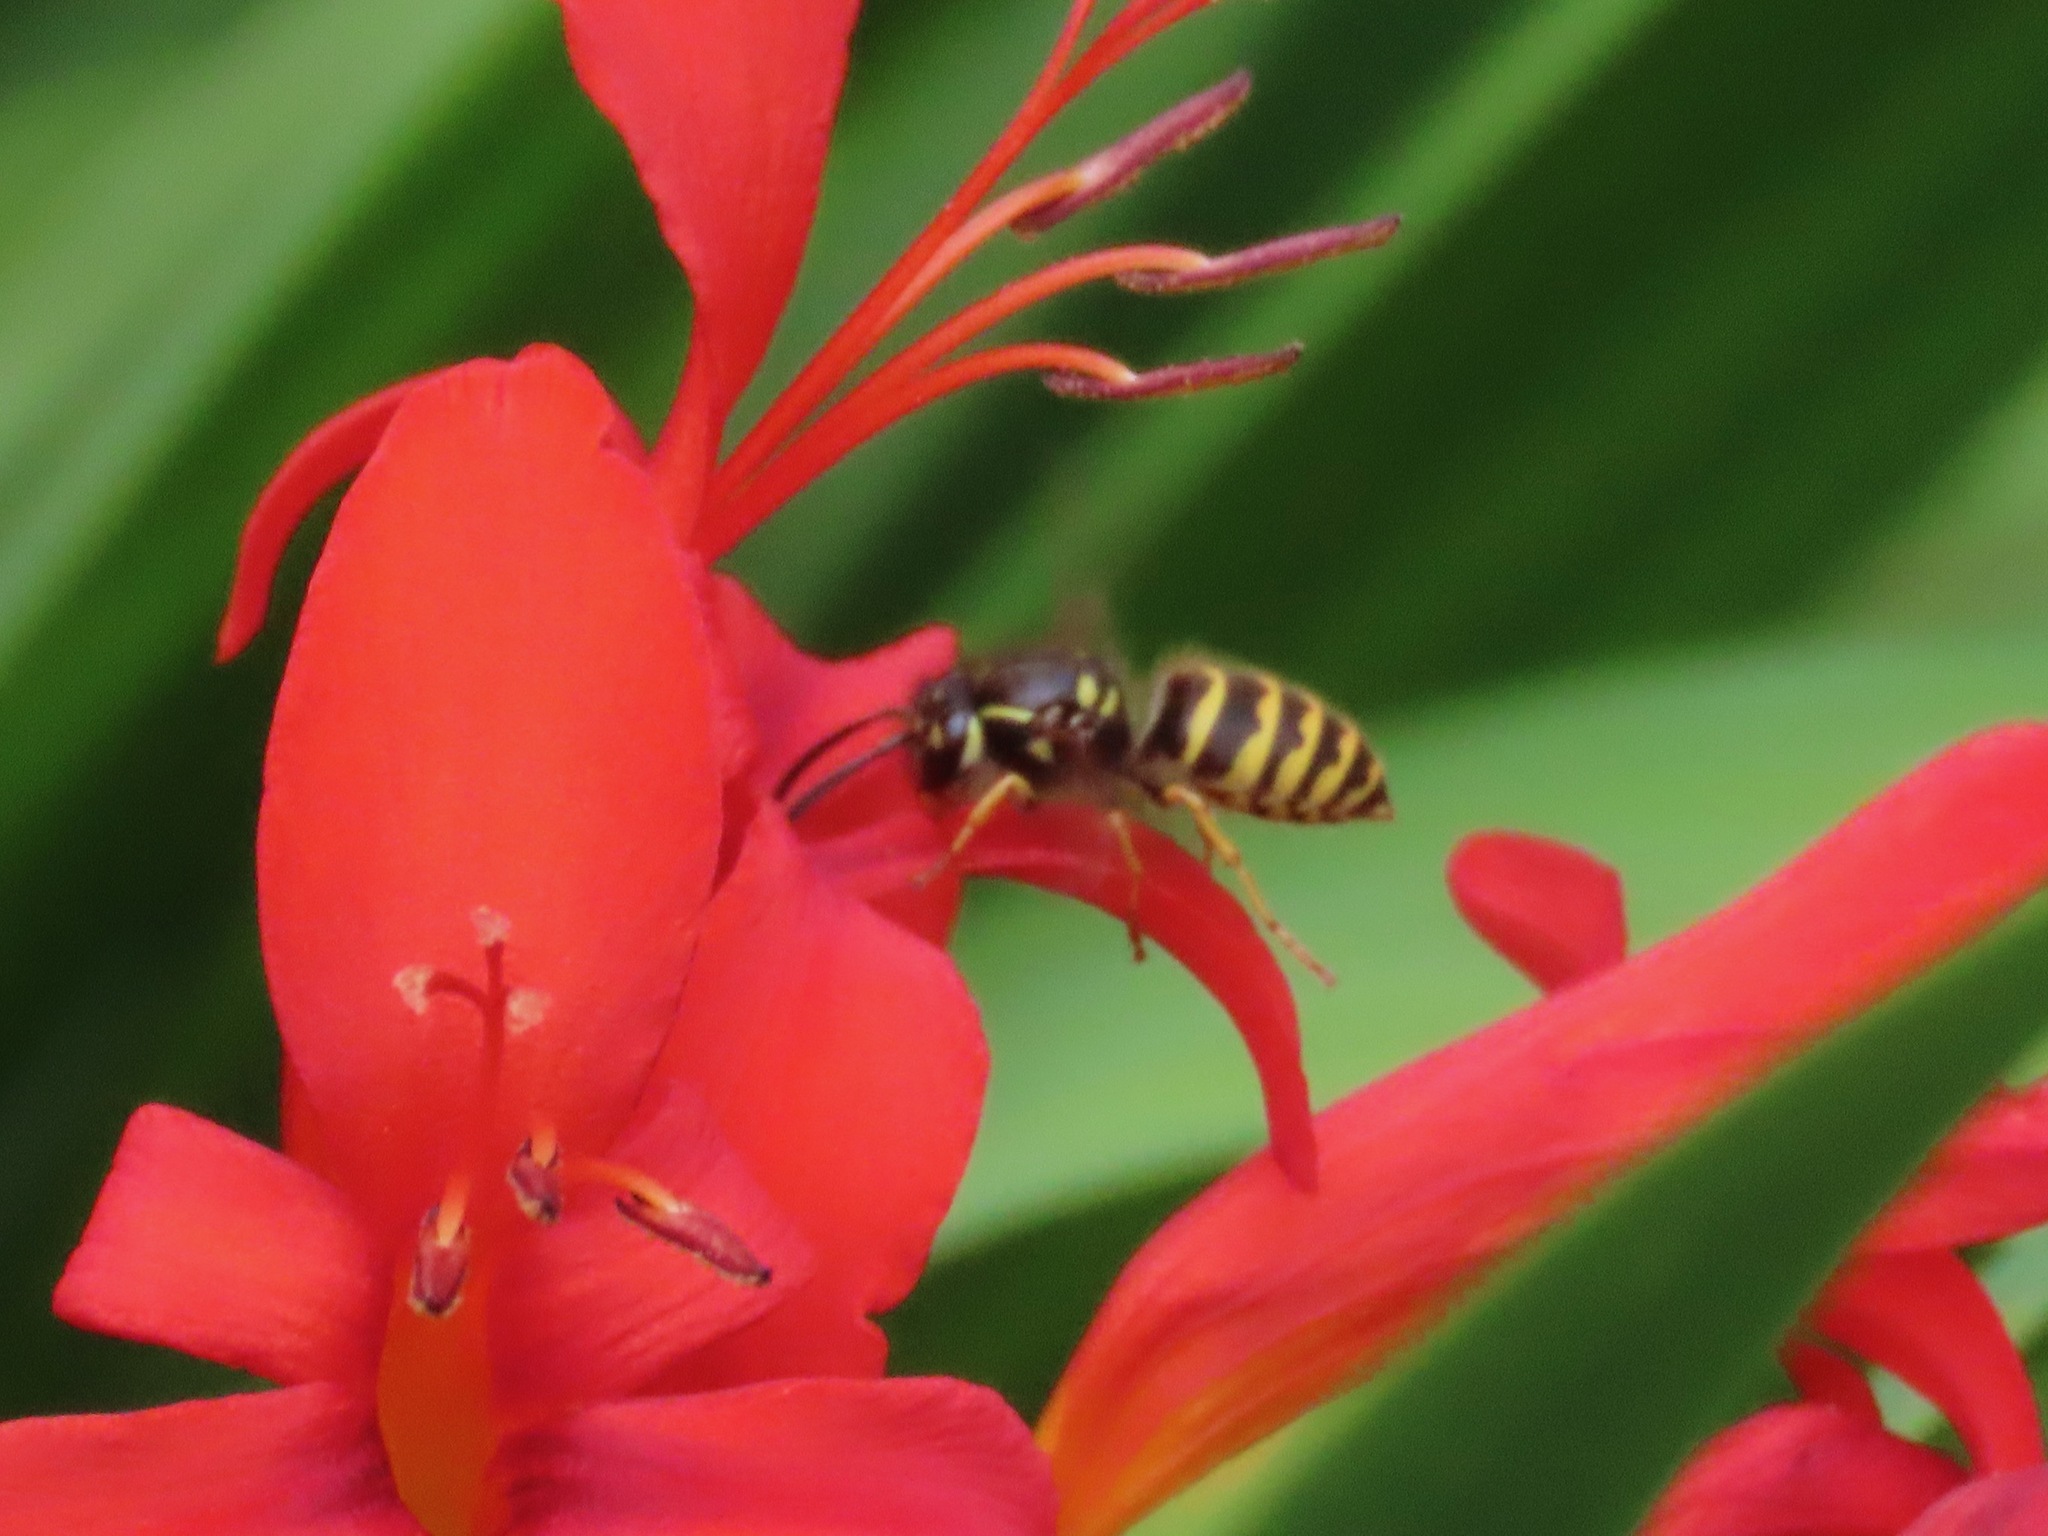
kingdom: Animalia
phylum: Arthropoda
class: Insecta
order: Hymenoptera
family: Vespidae
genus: Vespula
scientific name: Vespula alascensis
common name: Alaska yellowjacket
